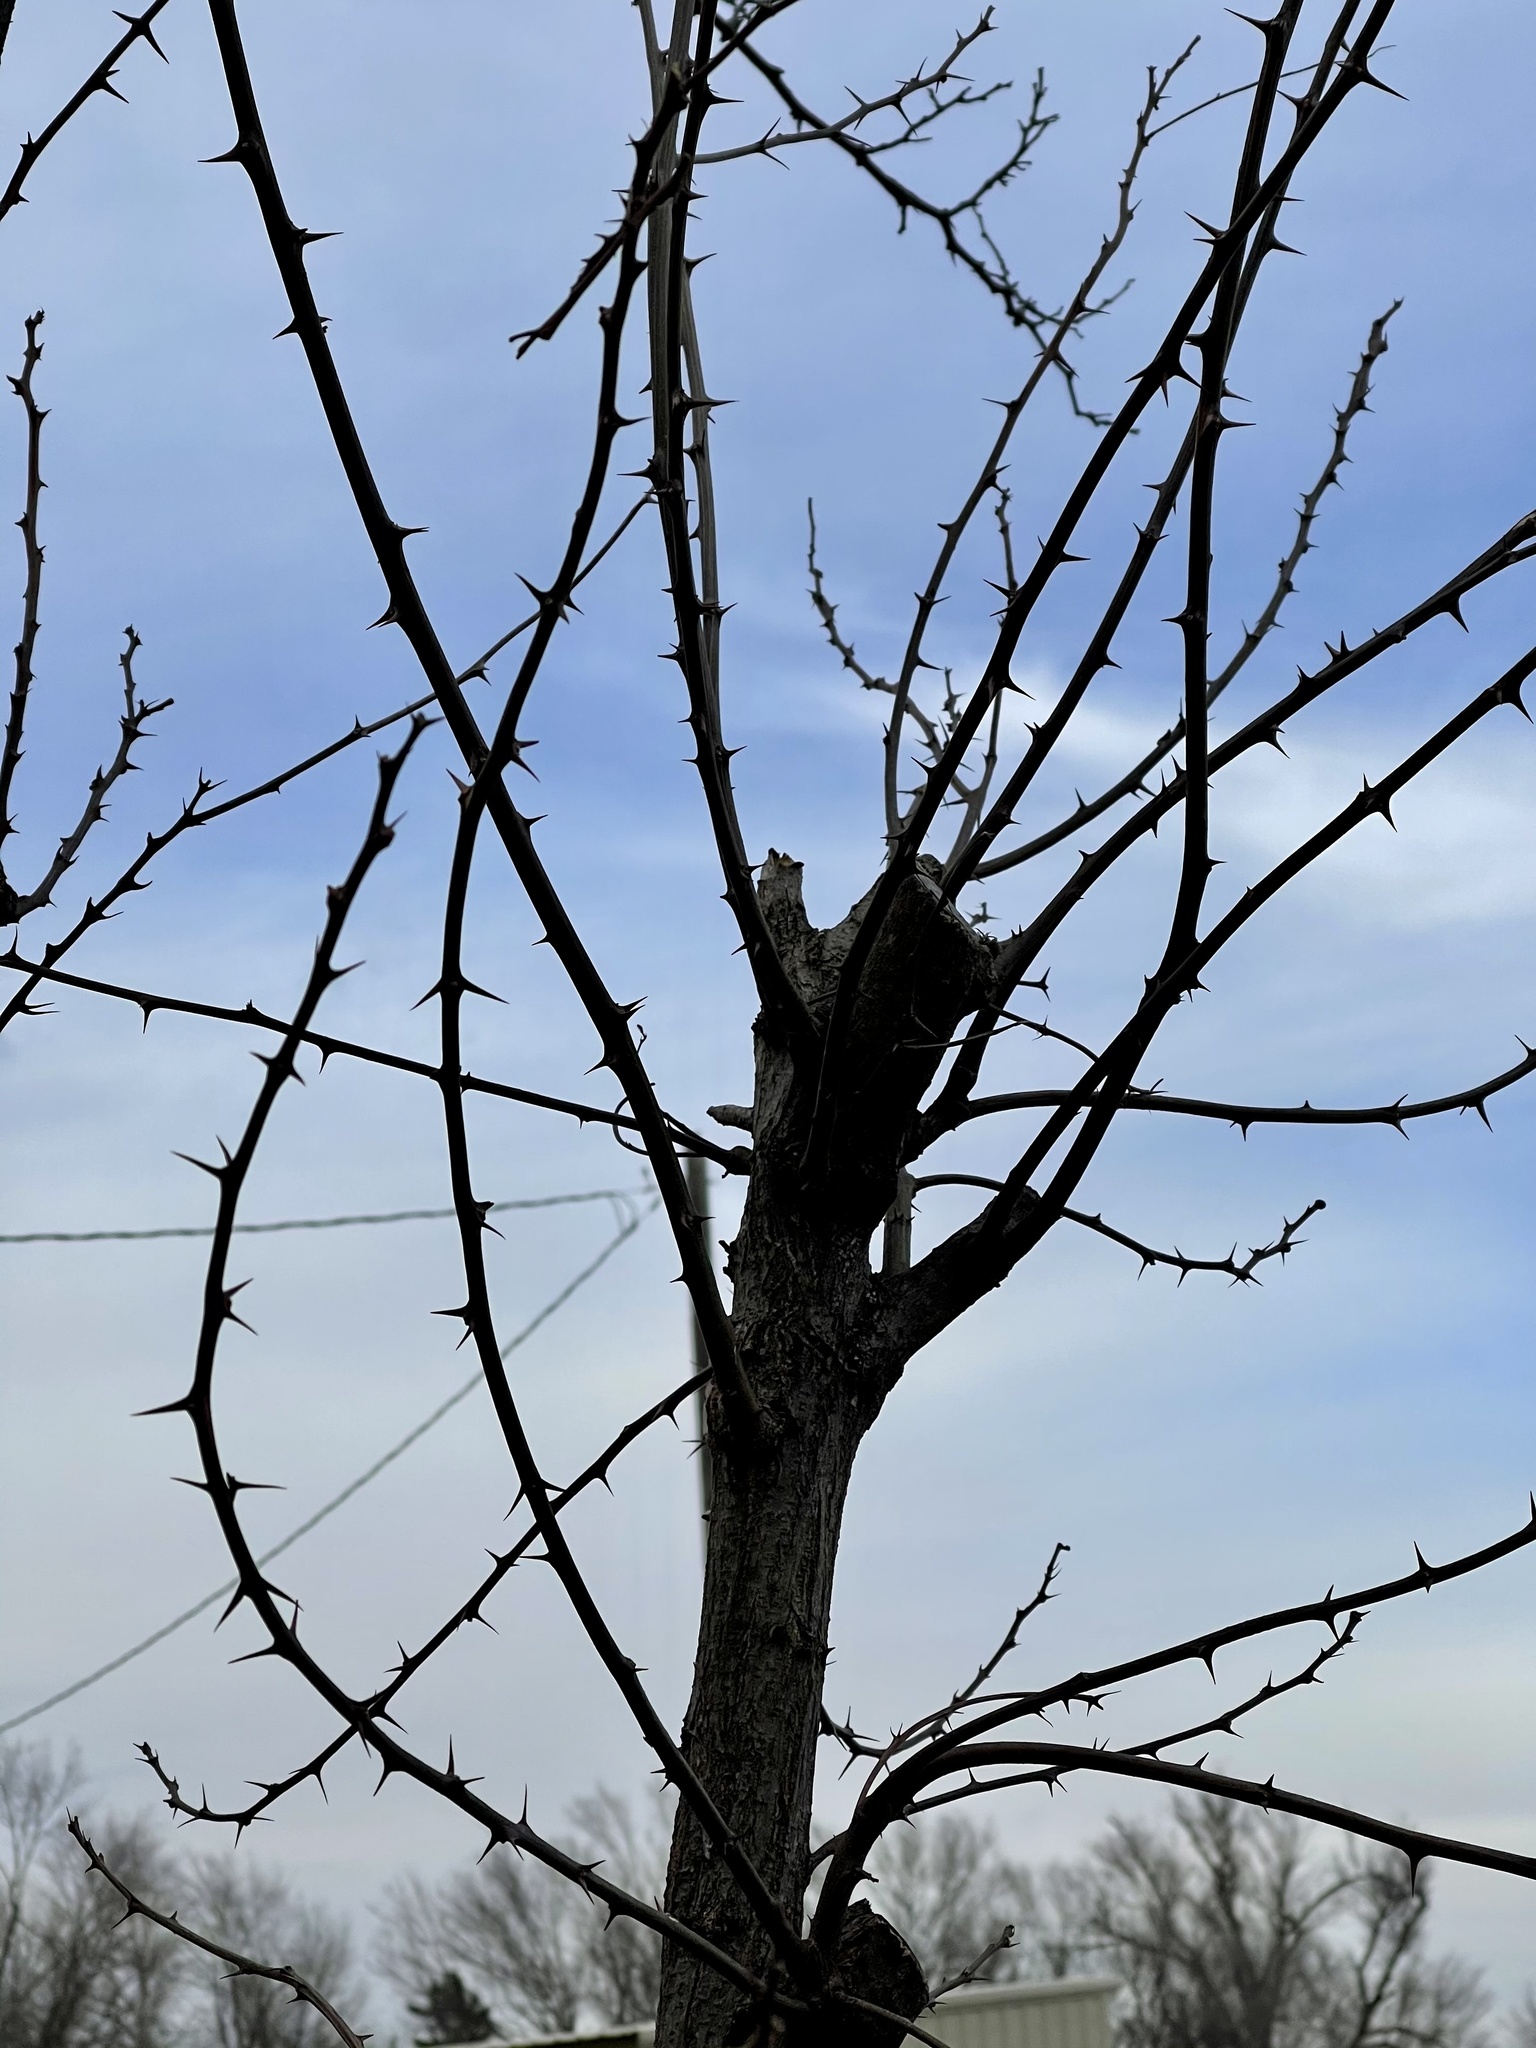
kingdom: Plantae
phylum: Tracheophyta
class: Magnoliopsida
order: Fabales
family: Fabaceae
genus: Robinia
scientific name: Robinia pseudoacacia
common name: Black locust
